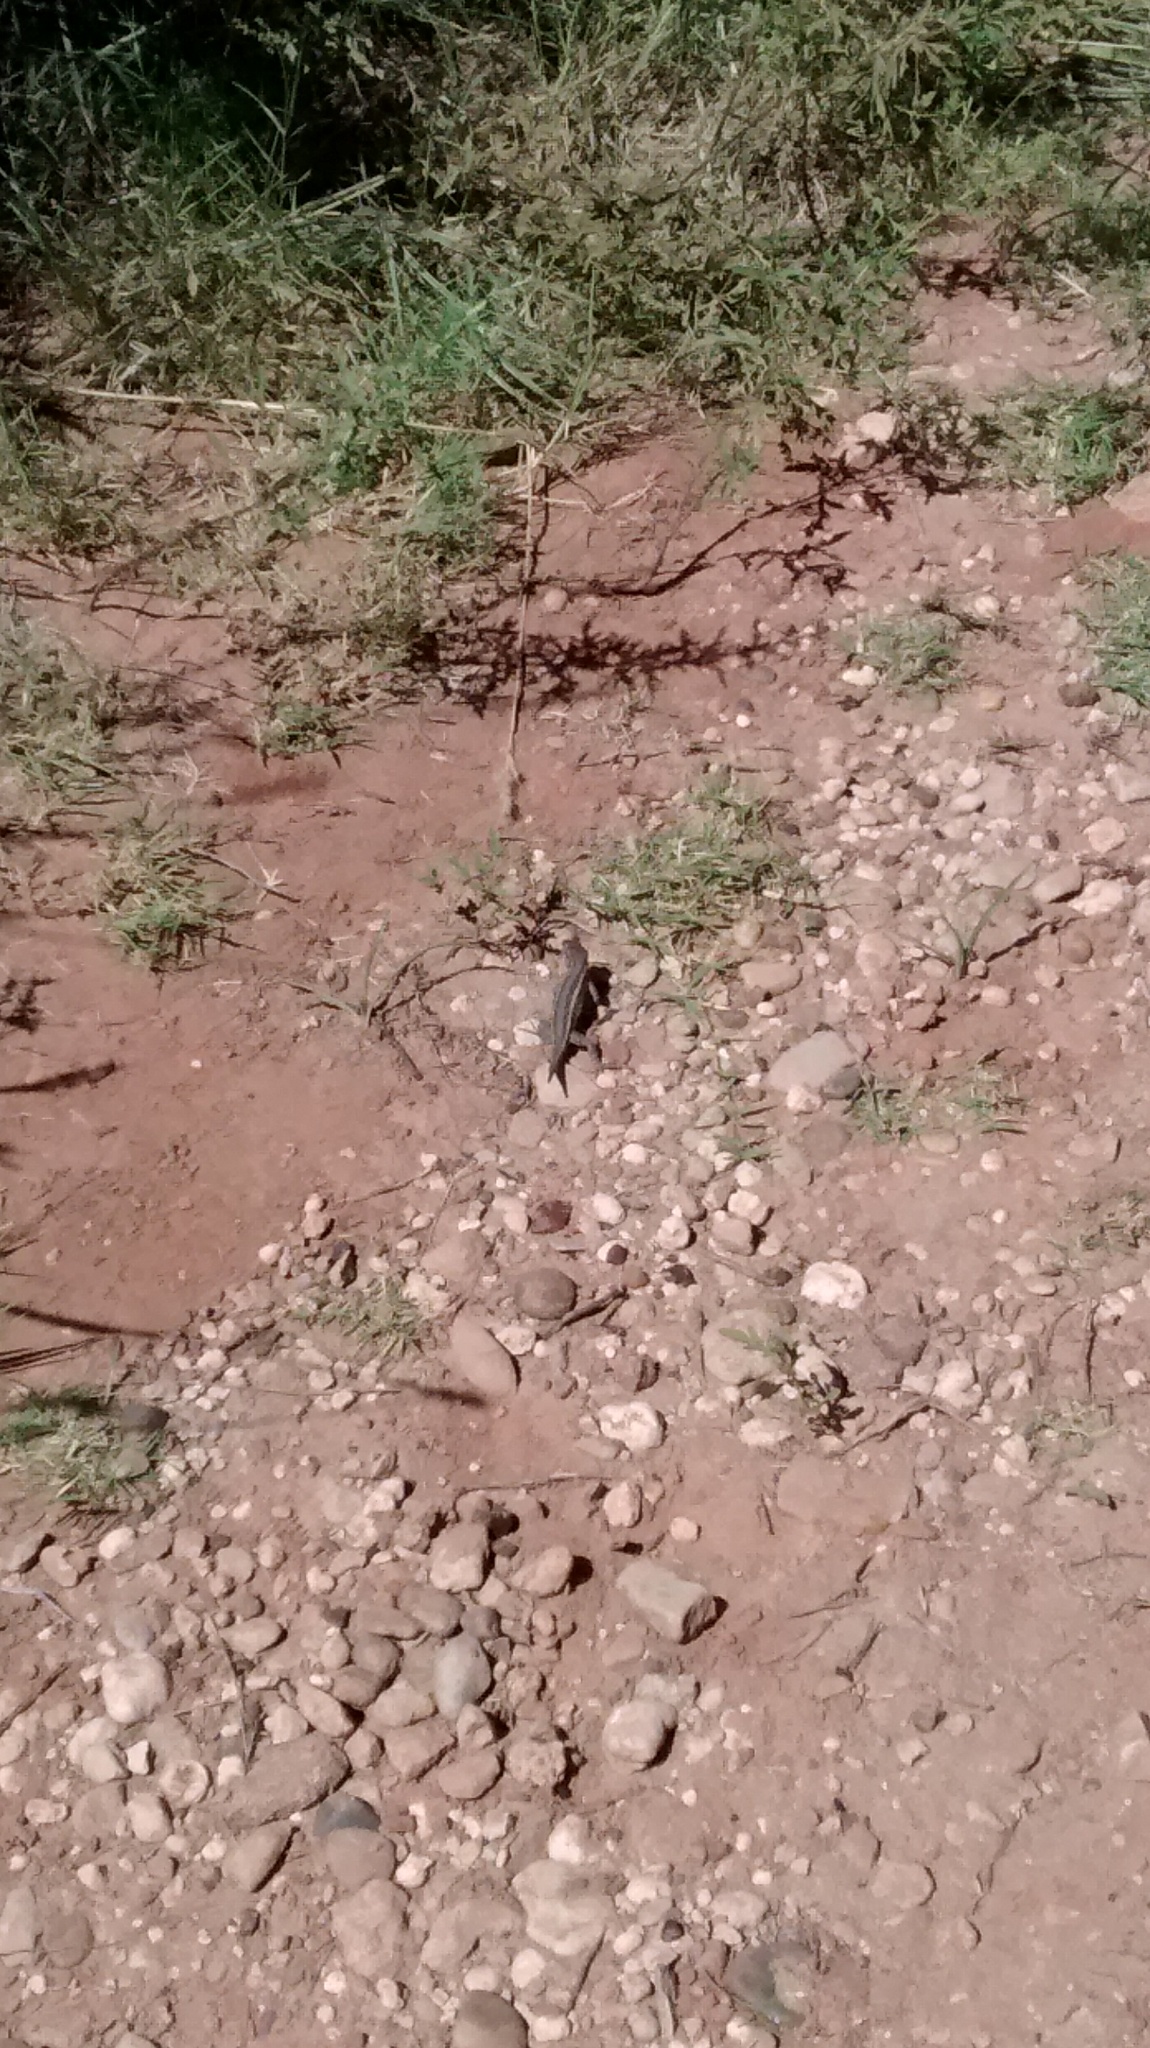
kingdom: Animalia
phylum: Chordata
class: Squamata
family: Phrynosomatidae
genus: Sceloporus
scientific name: Sceloporus consobrinus
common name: Southern prairie lizard
